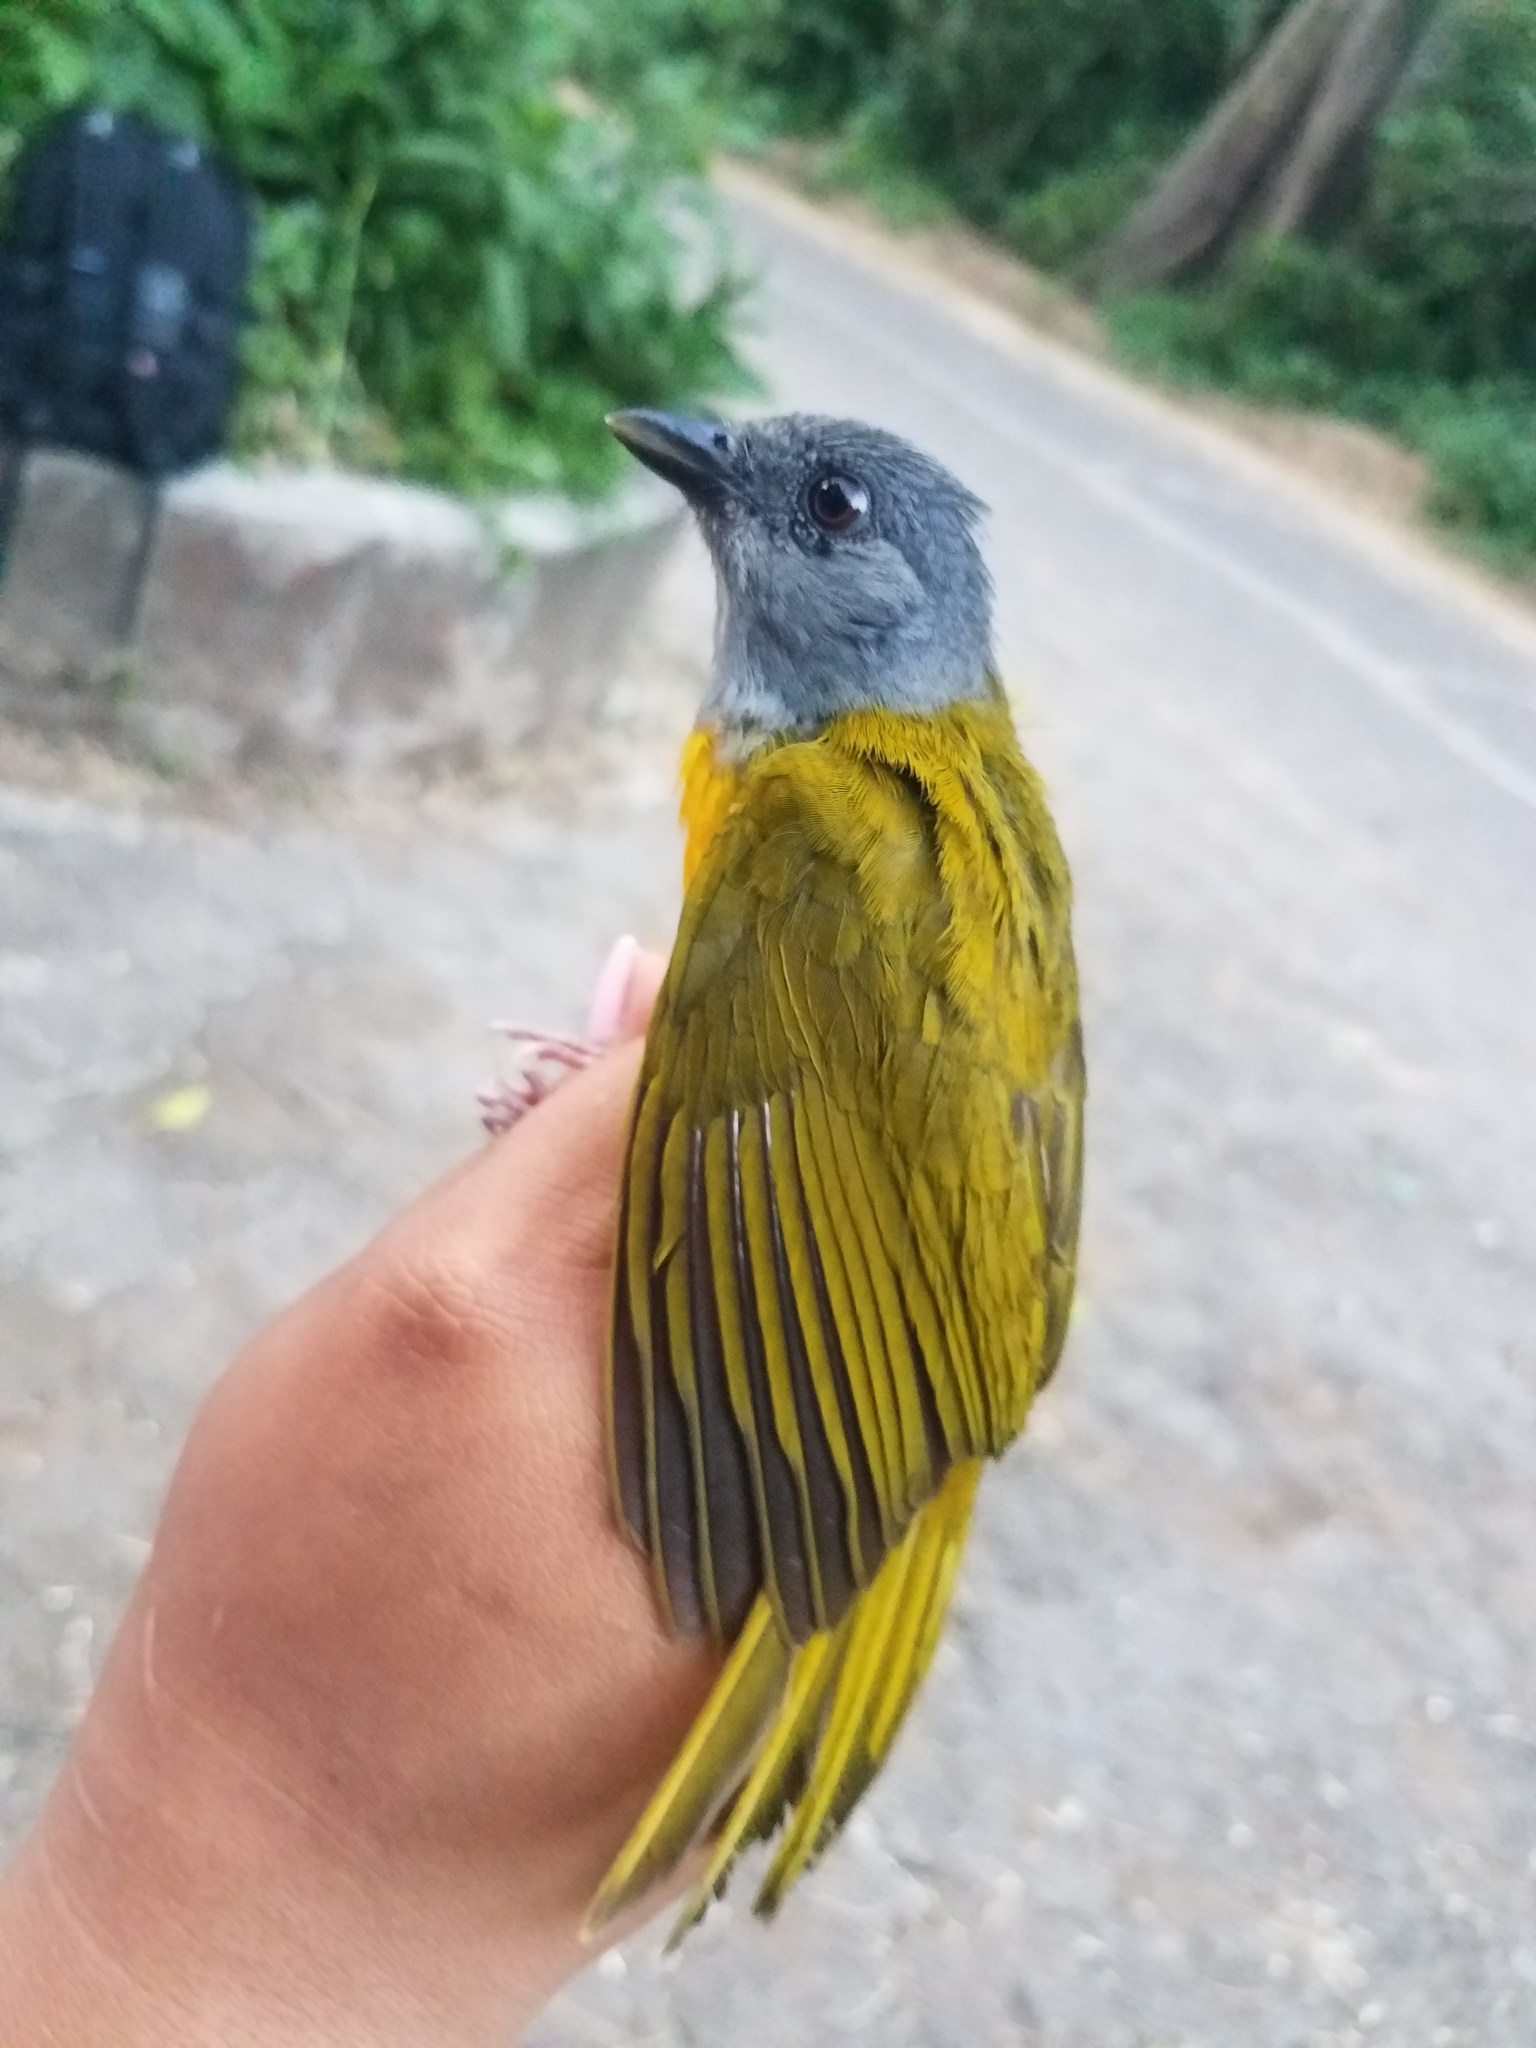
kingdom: Animalia
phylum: Chordata
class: Aves
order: Passeriformes
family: Thraupidae
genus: Eucometis
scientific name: Eucometis penicillata
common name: Grey-headed tanager
